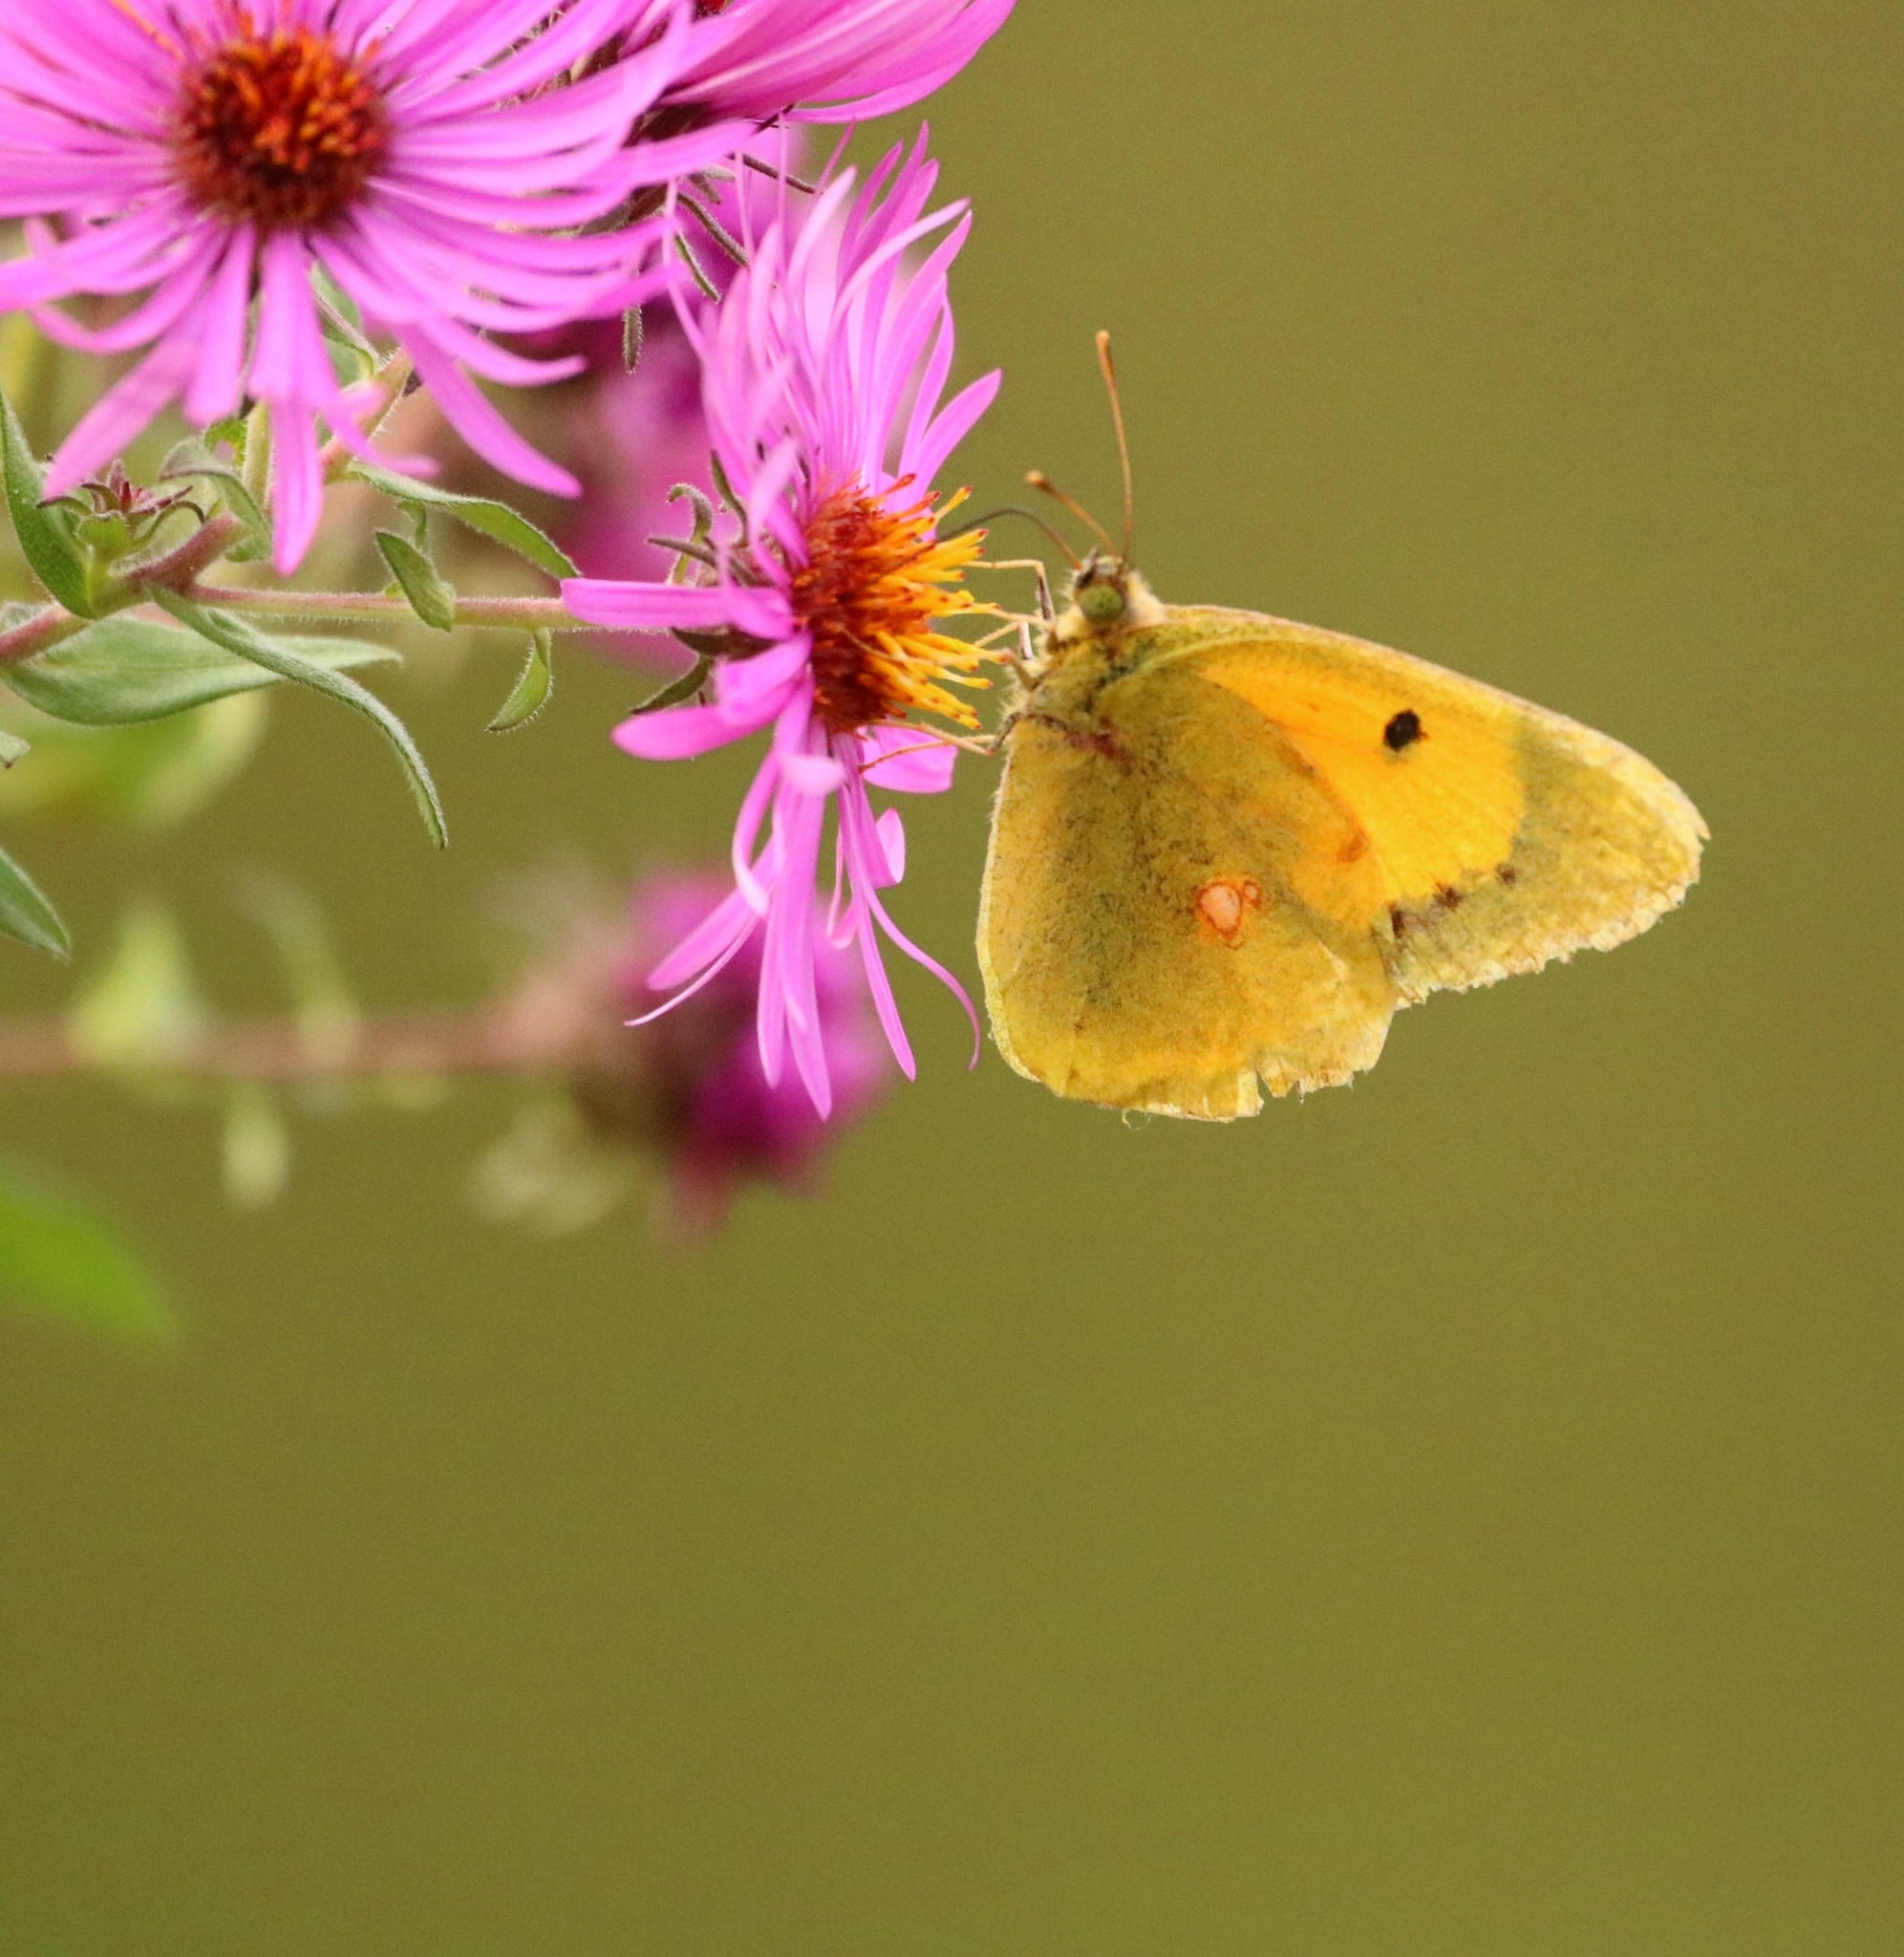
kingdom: Animalia
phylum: Arthropoda
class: Insecta
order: Lepidoptera
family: Pieridae
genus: Colias
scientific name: Colias croceus
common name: Clouded yellow
